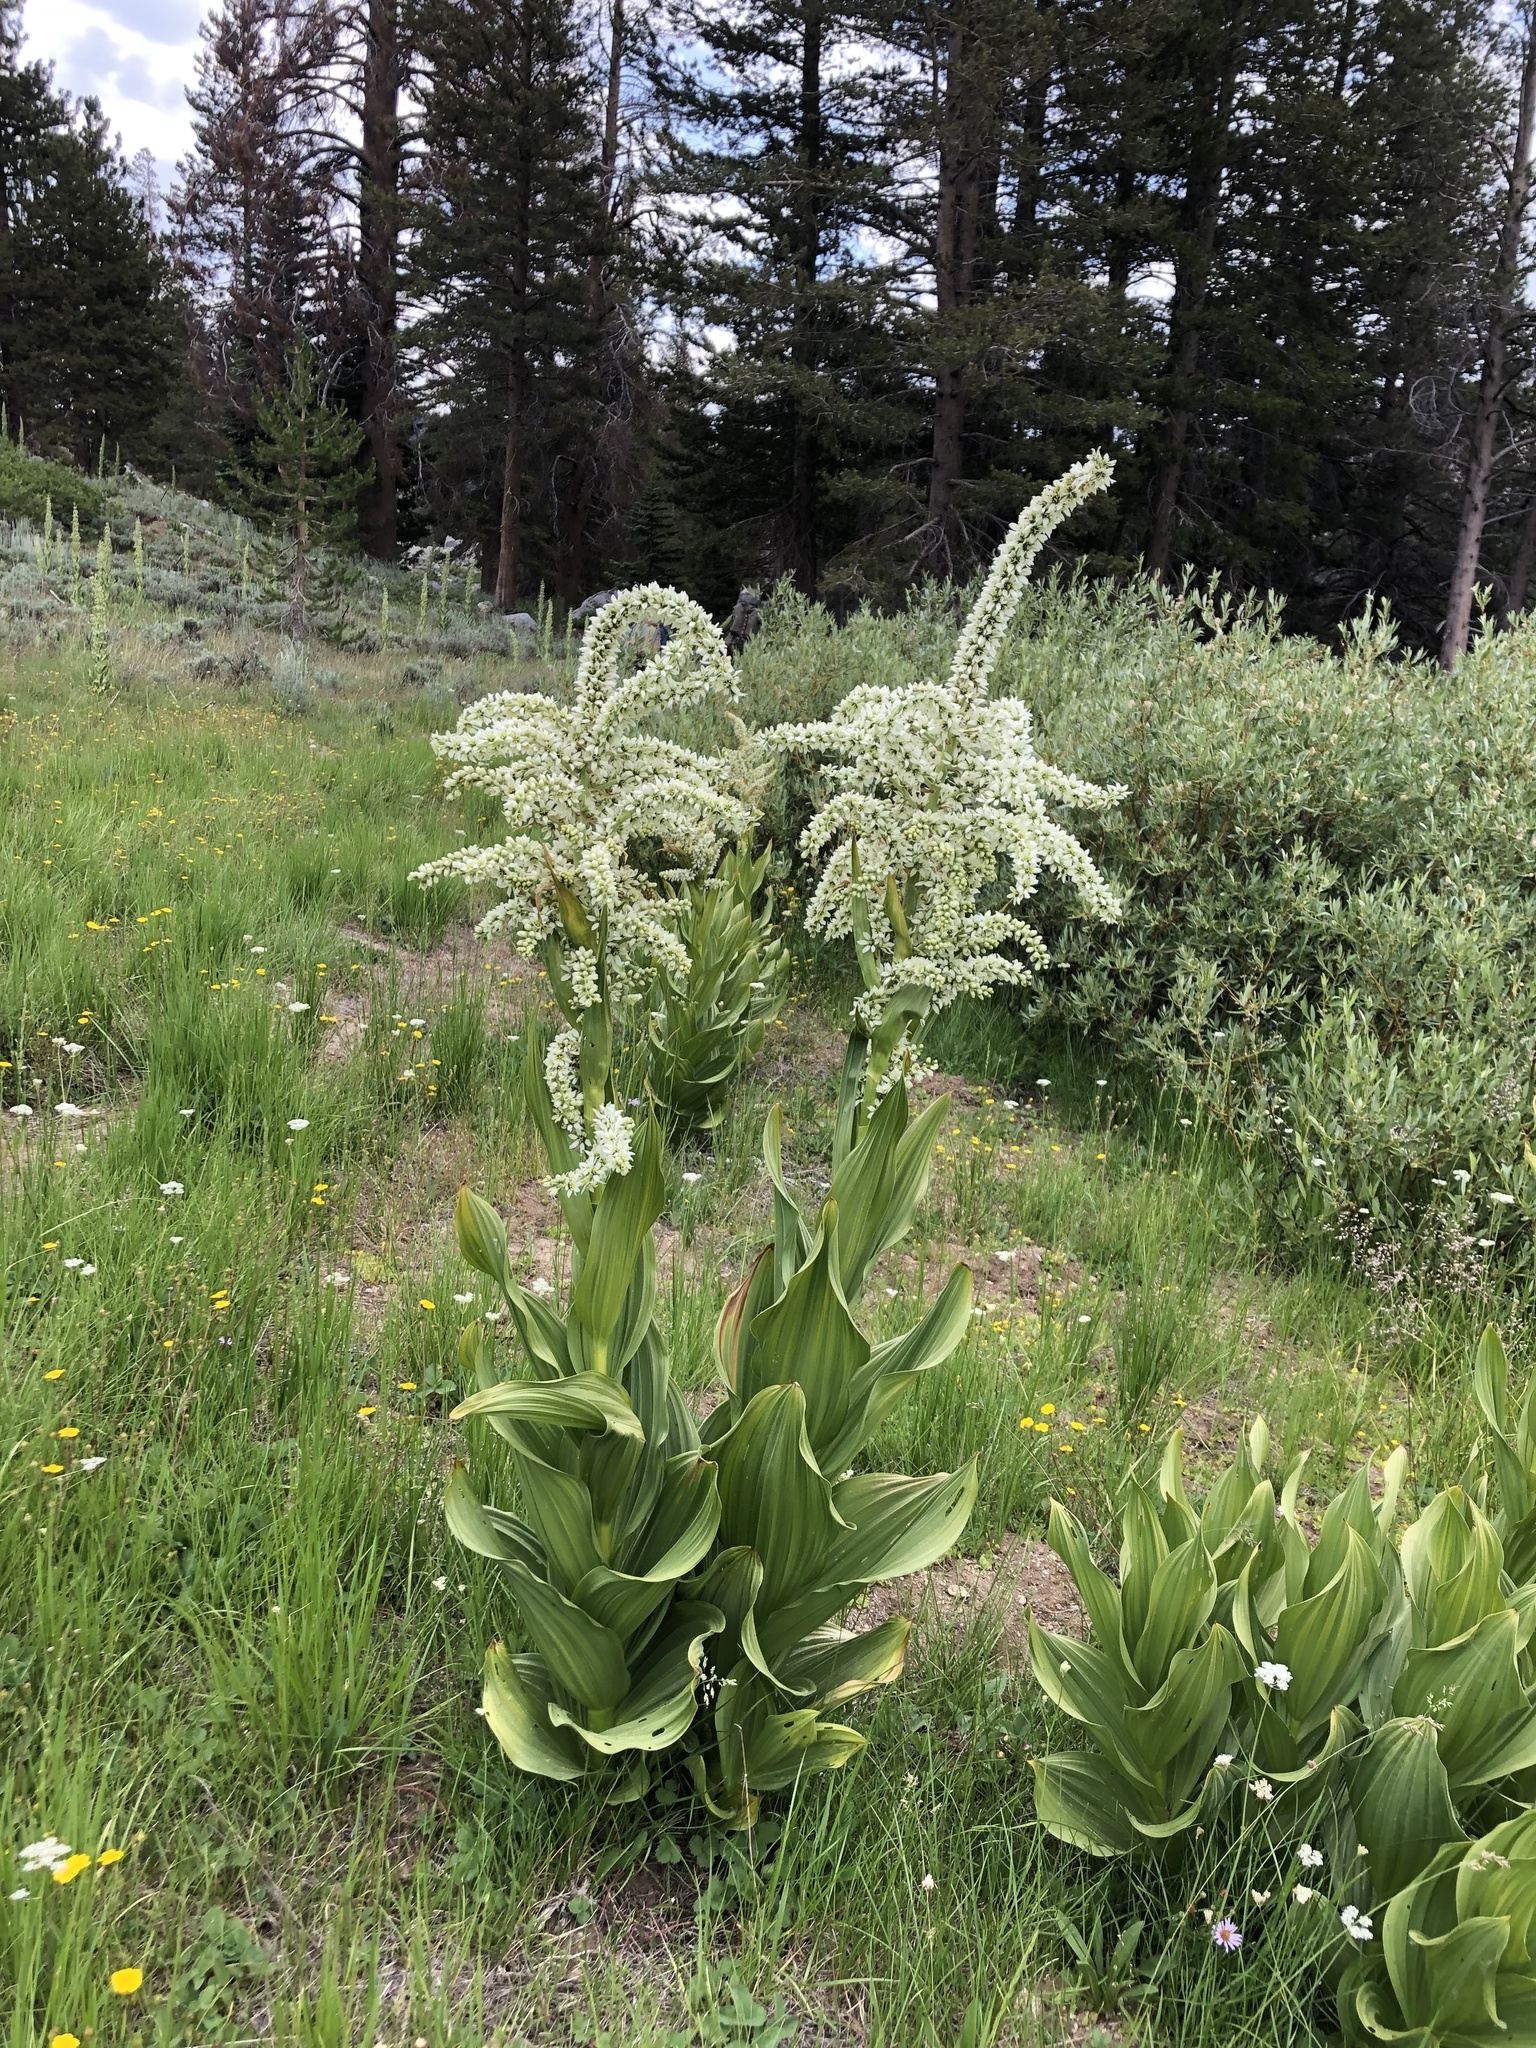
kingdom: Plantae
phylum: Tracheophyta
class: Liliopsida
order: Liliales
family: Melanthiaceae
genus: Veratrum
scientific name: Veratrum californicum
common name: California veratrum
